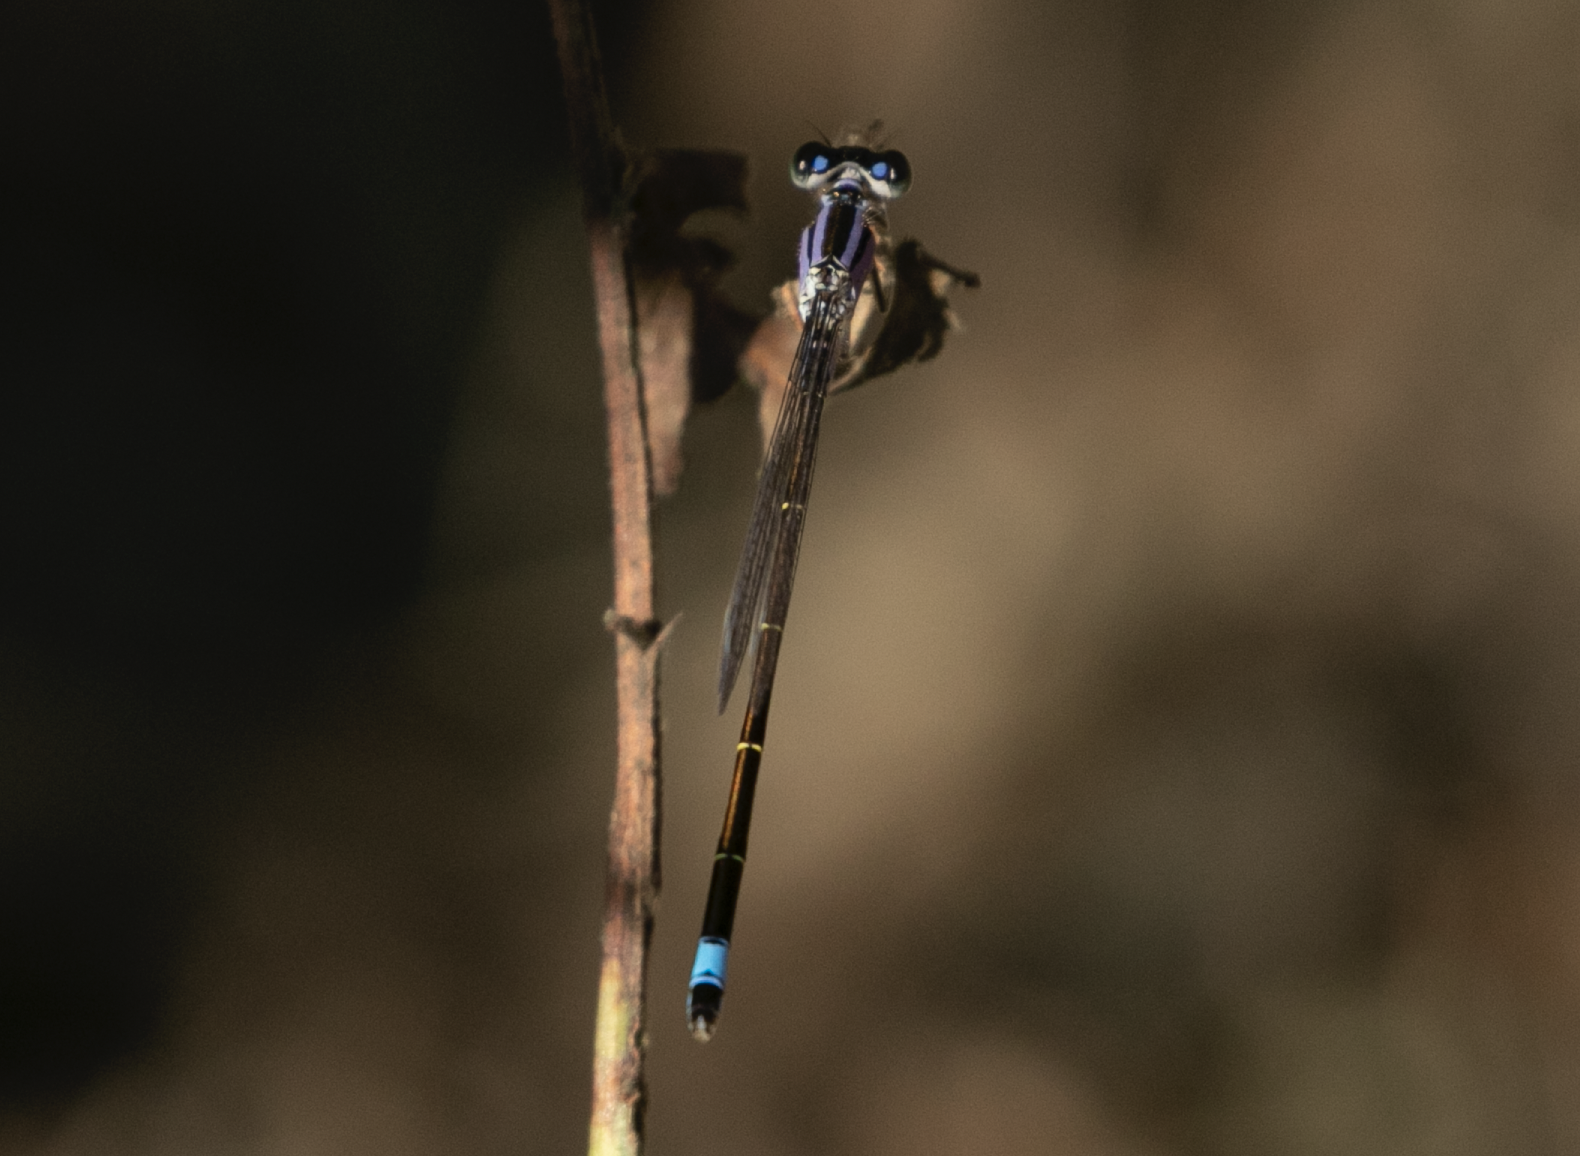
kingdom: Animalia
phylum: Arthropoda
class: Insecta
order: Odonata
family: Coenagrionidae
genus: Ischnura
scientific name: Ischnura elegans
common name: Blue-tailed damselfly
